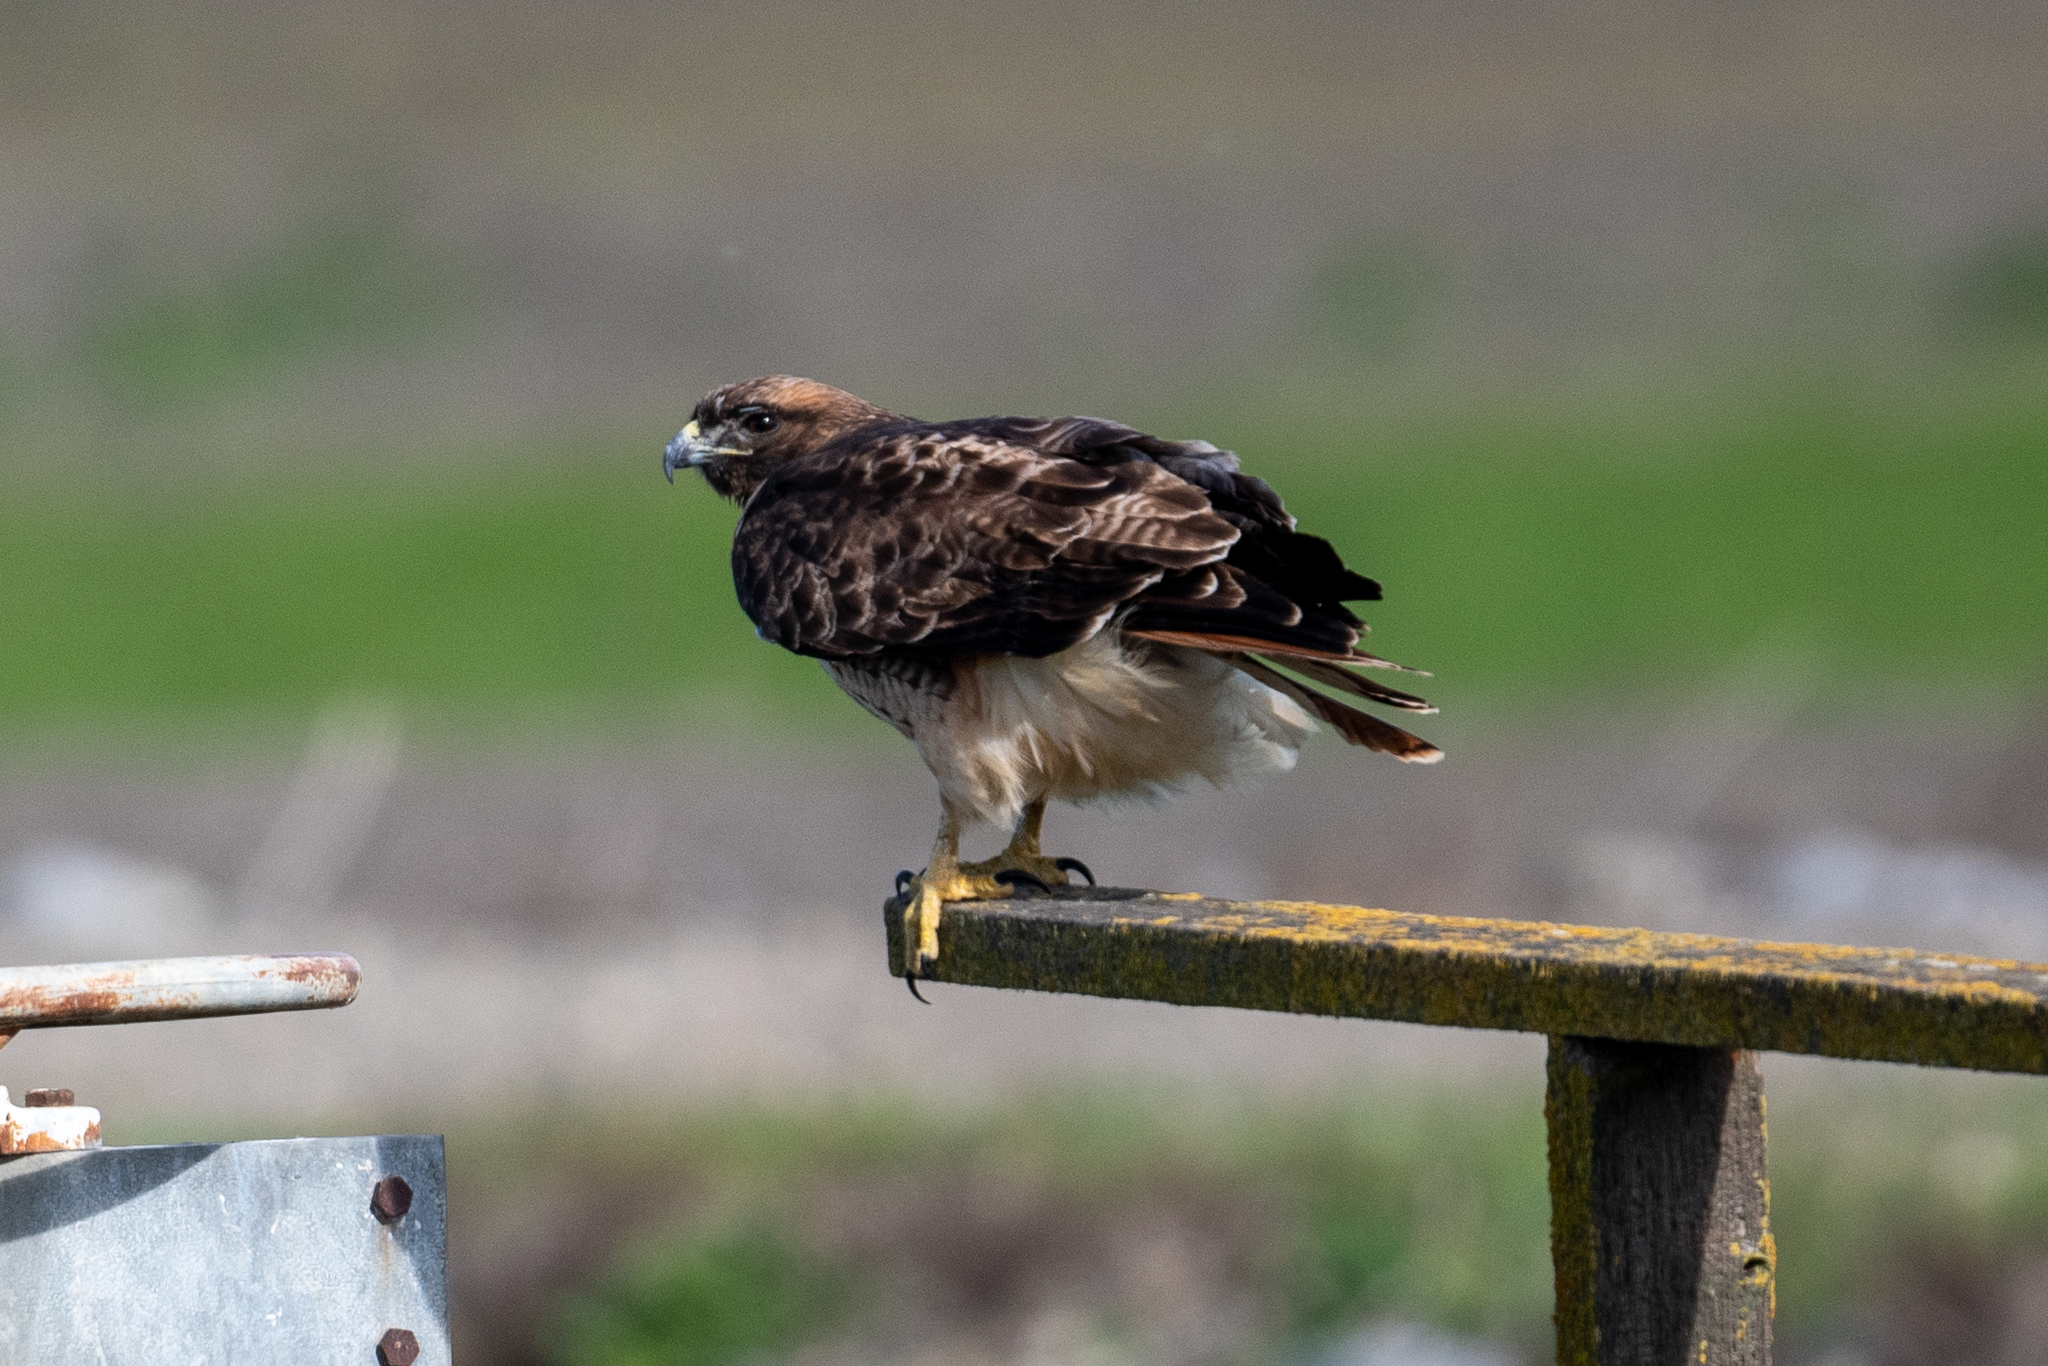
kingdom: Animalia
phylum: Chordata
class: Aves
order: Accipitriformes
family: Accipitridae
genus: Buteo
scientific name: Buteo jamaicensis
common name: Red-tailed hawk
